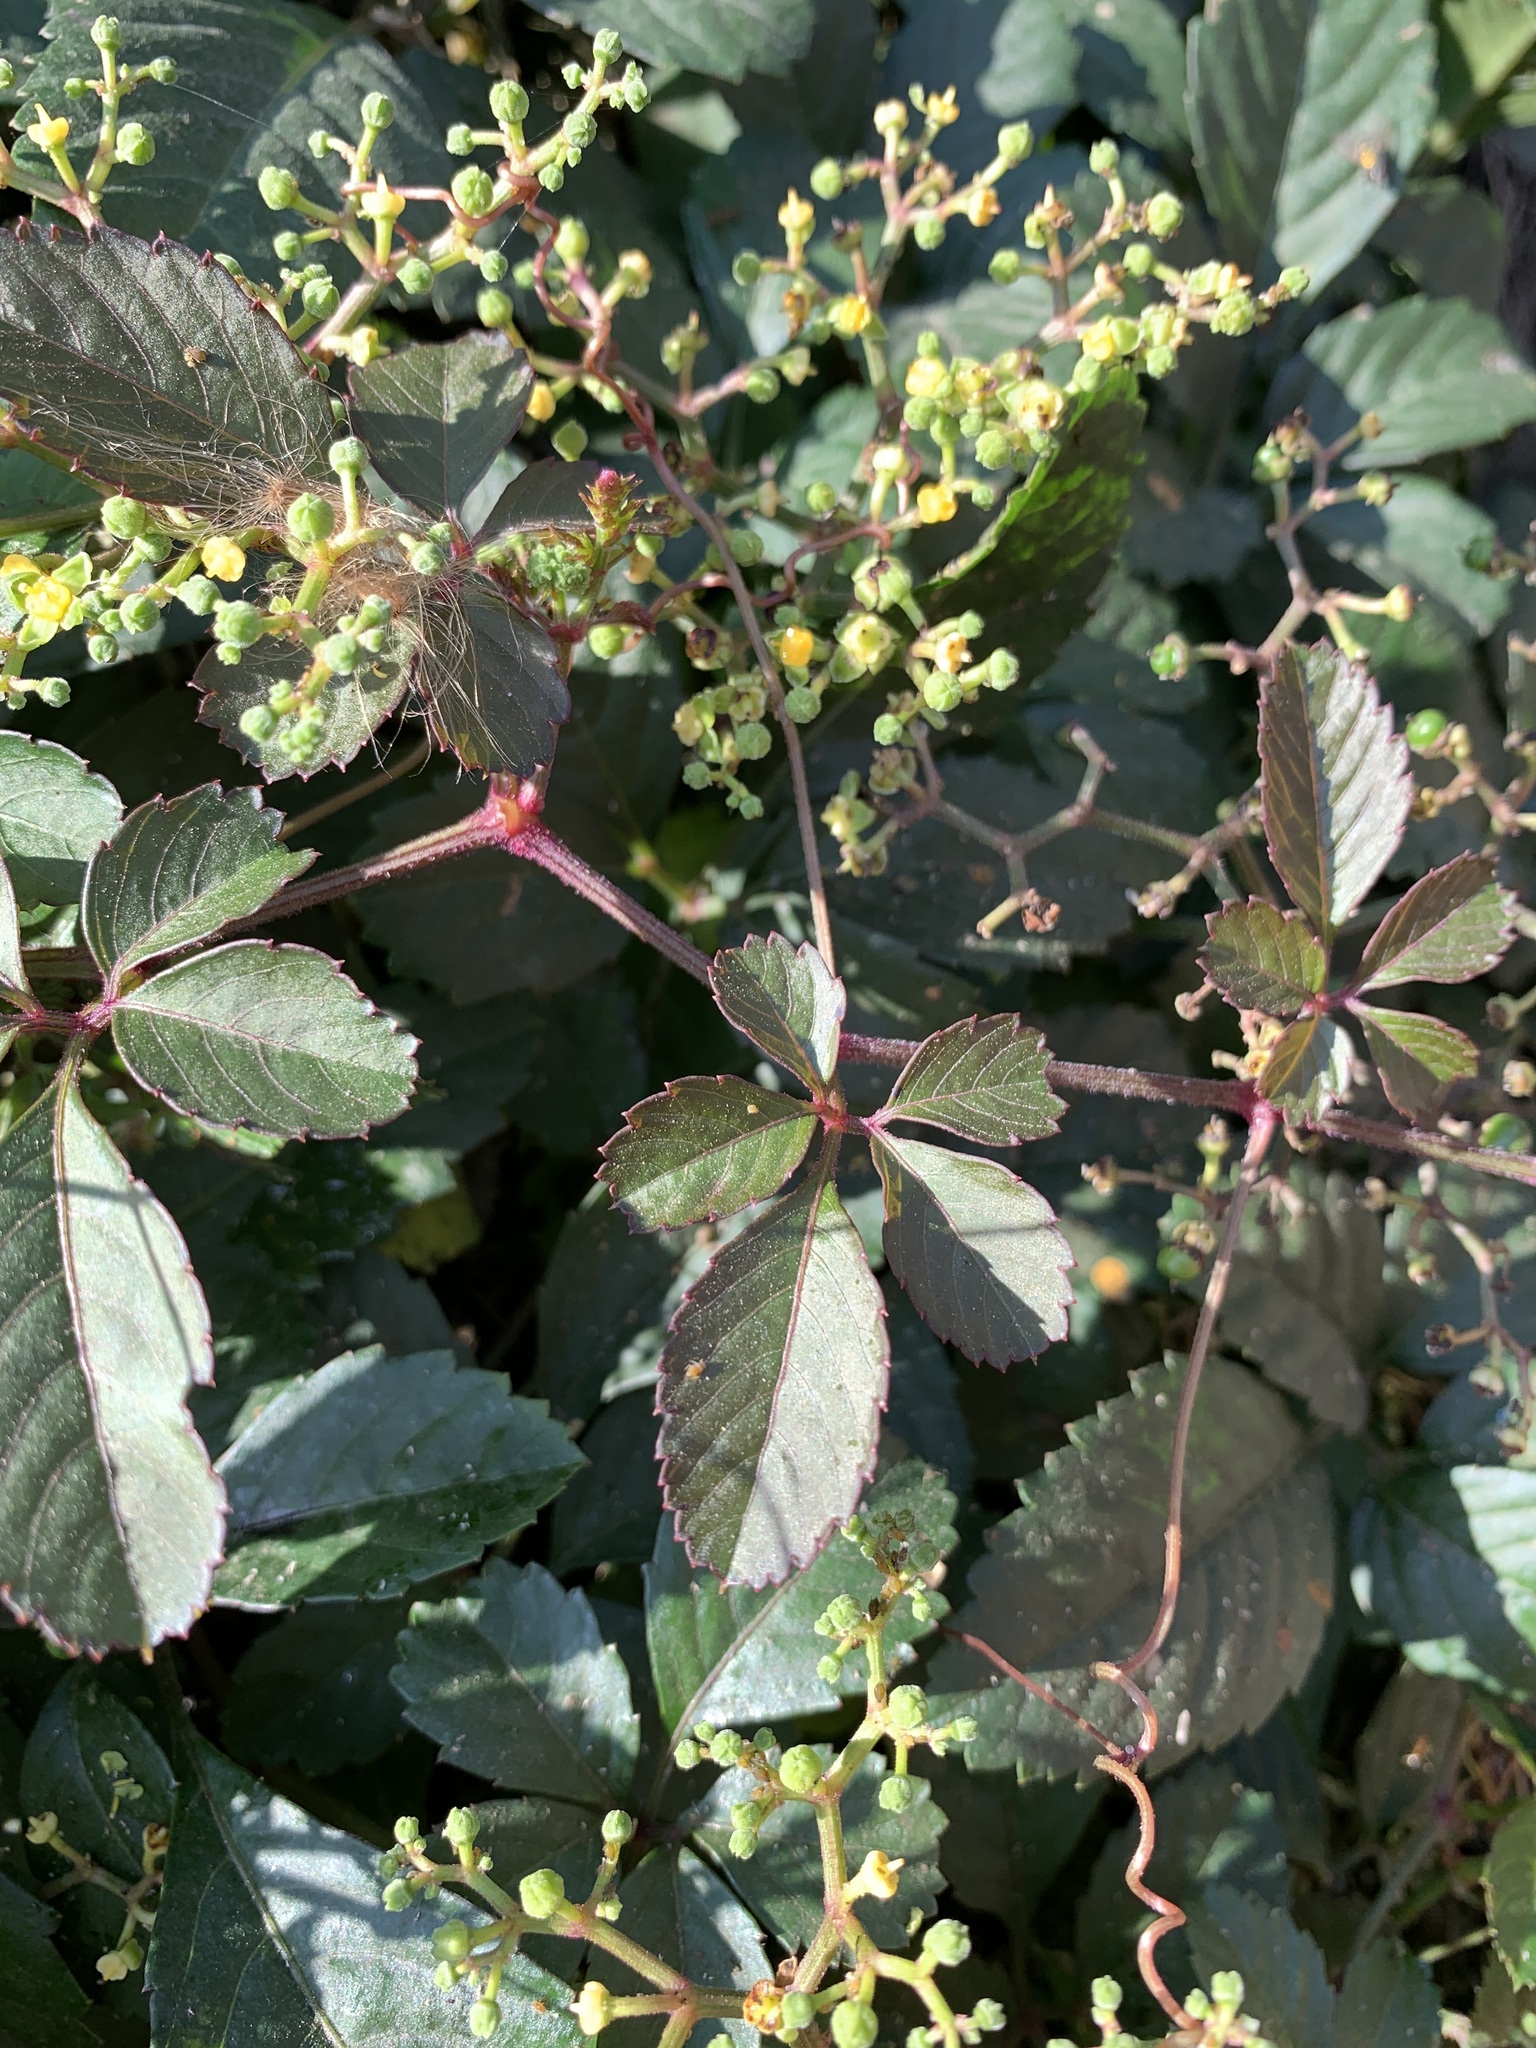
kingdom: Plantae
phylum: Tracheophyta
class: Magnoliopsida
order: Vitales
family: Vitaceae
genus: Causonis
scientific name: Causonis japonica
